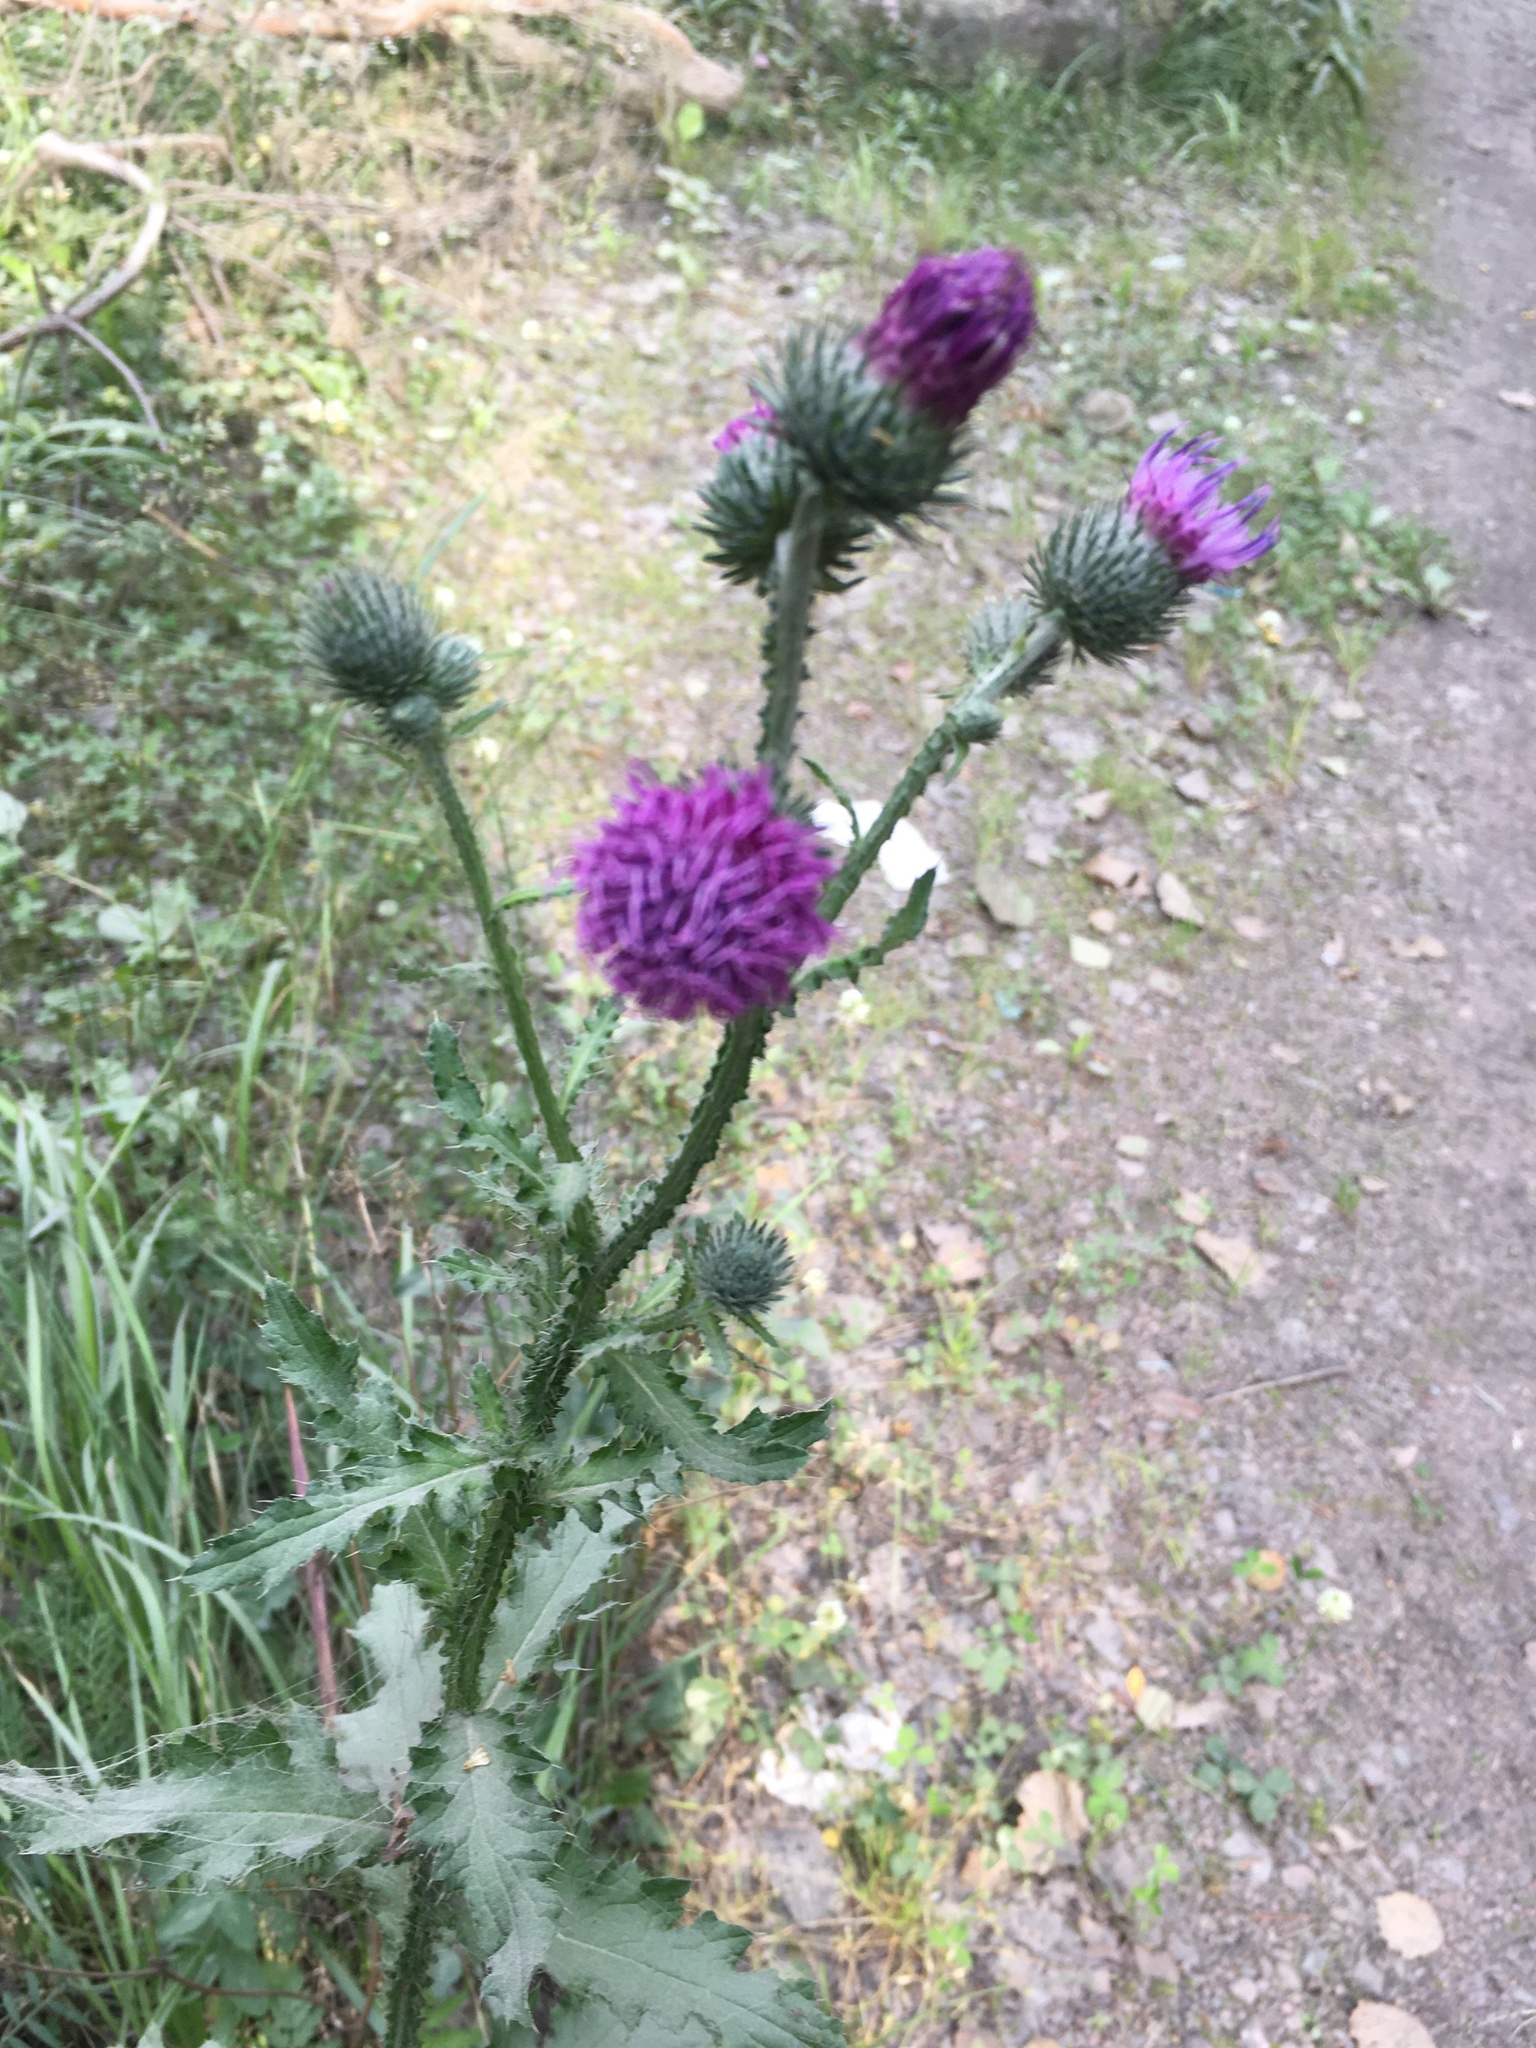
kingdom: Plantae
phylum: Tracheophyta
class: Magnoliopsida
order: Asterales
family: Asteraceae
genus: Carduus
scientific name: Carduus crispus
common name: Welted thistle
